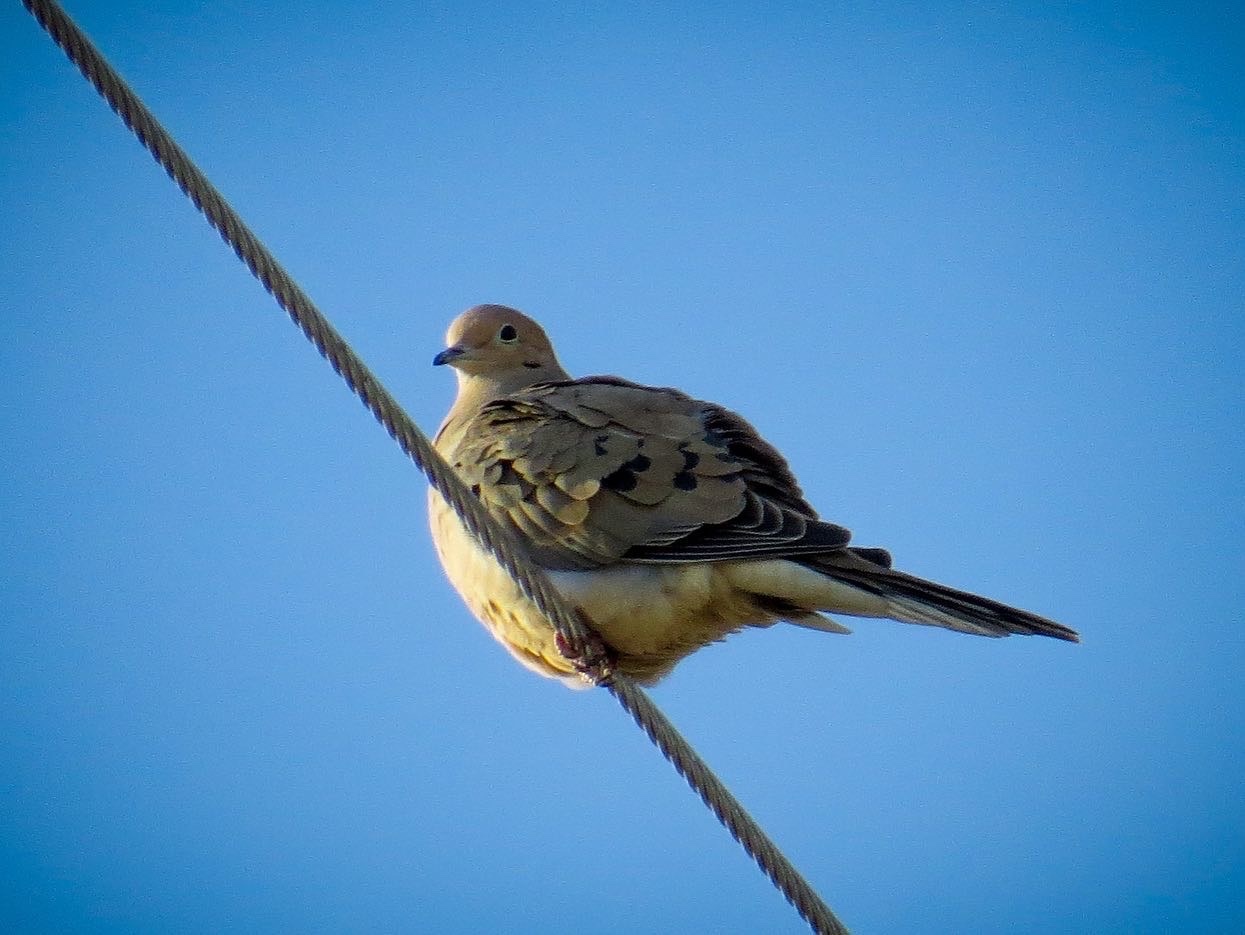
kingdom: Animalia
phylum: Chordata
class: Aves
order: Columbiformes
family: Columbidae
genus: Zenaida
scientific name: Zenaida macroura
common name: Mourning dove
